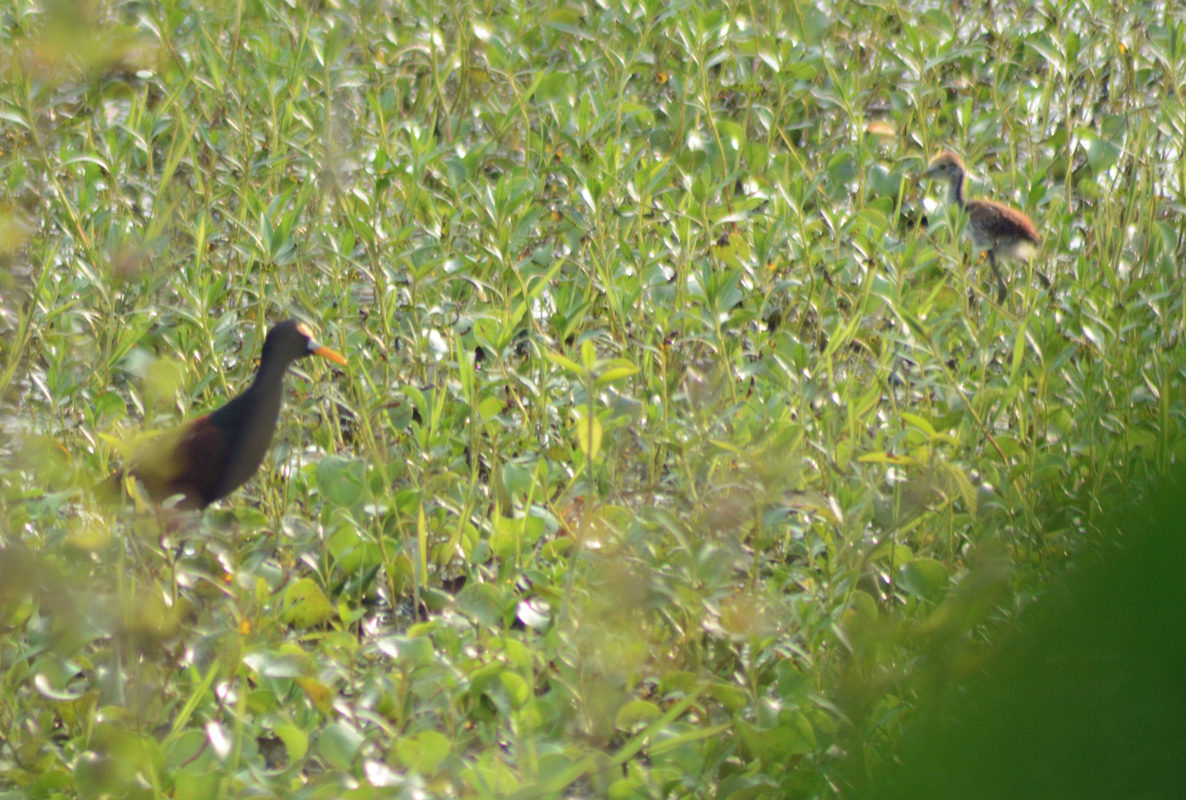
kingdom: Animalia
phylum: Chordata
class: Aves
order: Charadriiformes
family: Jacanidae
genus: Jacana
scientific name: Jacana spinosa
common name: Northern jacana
